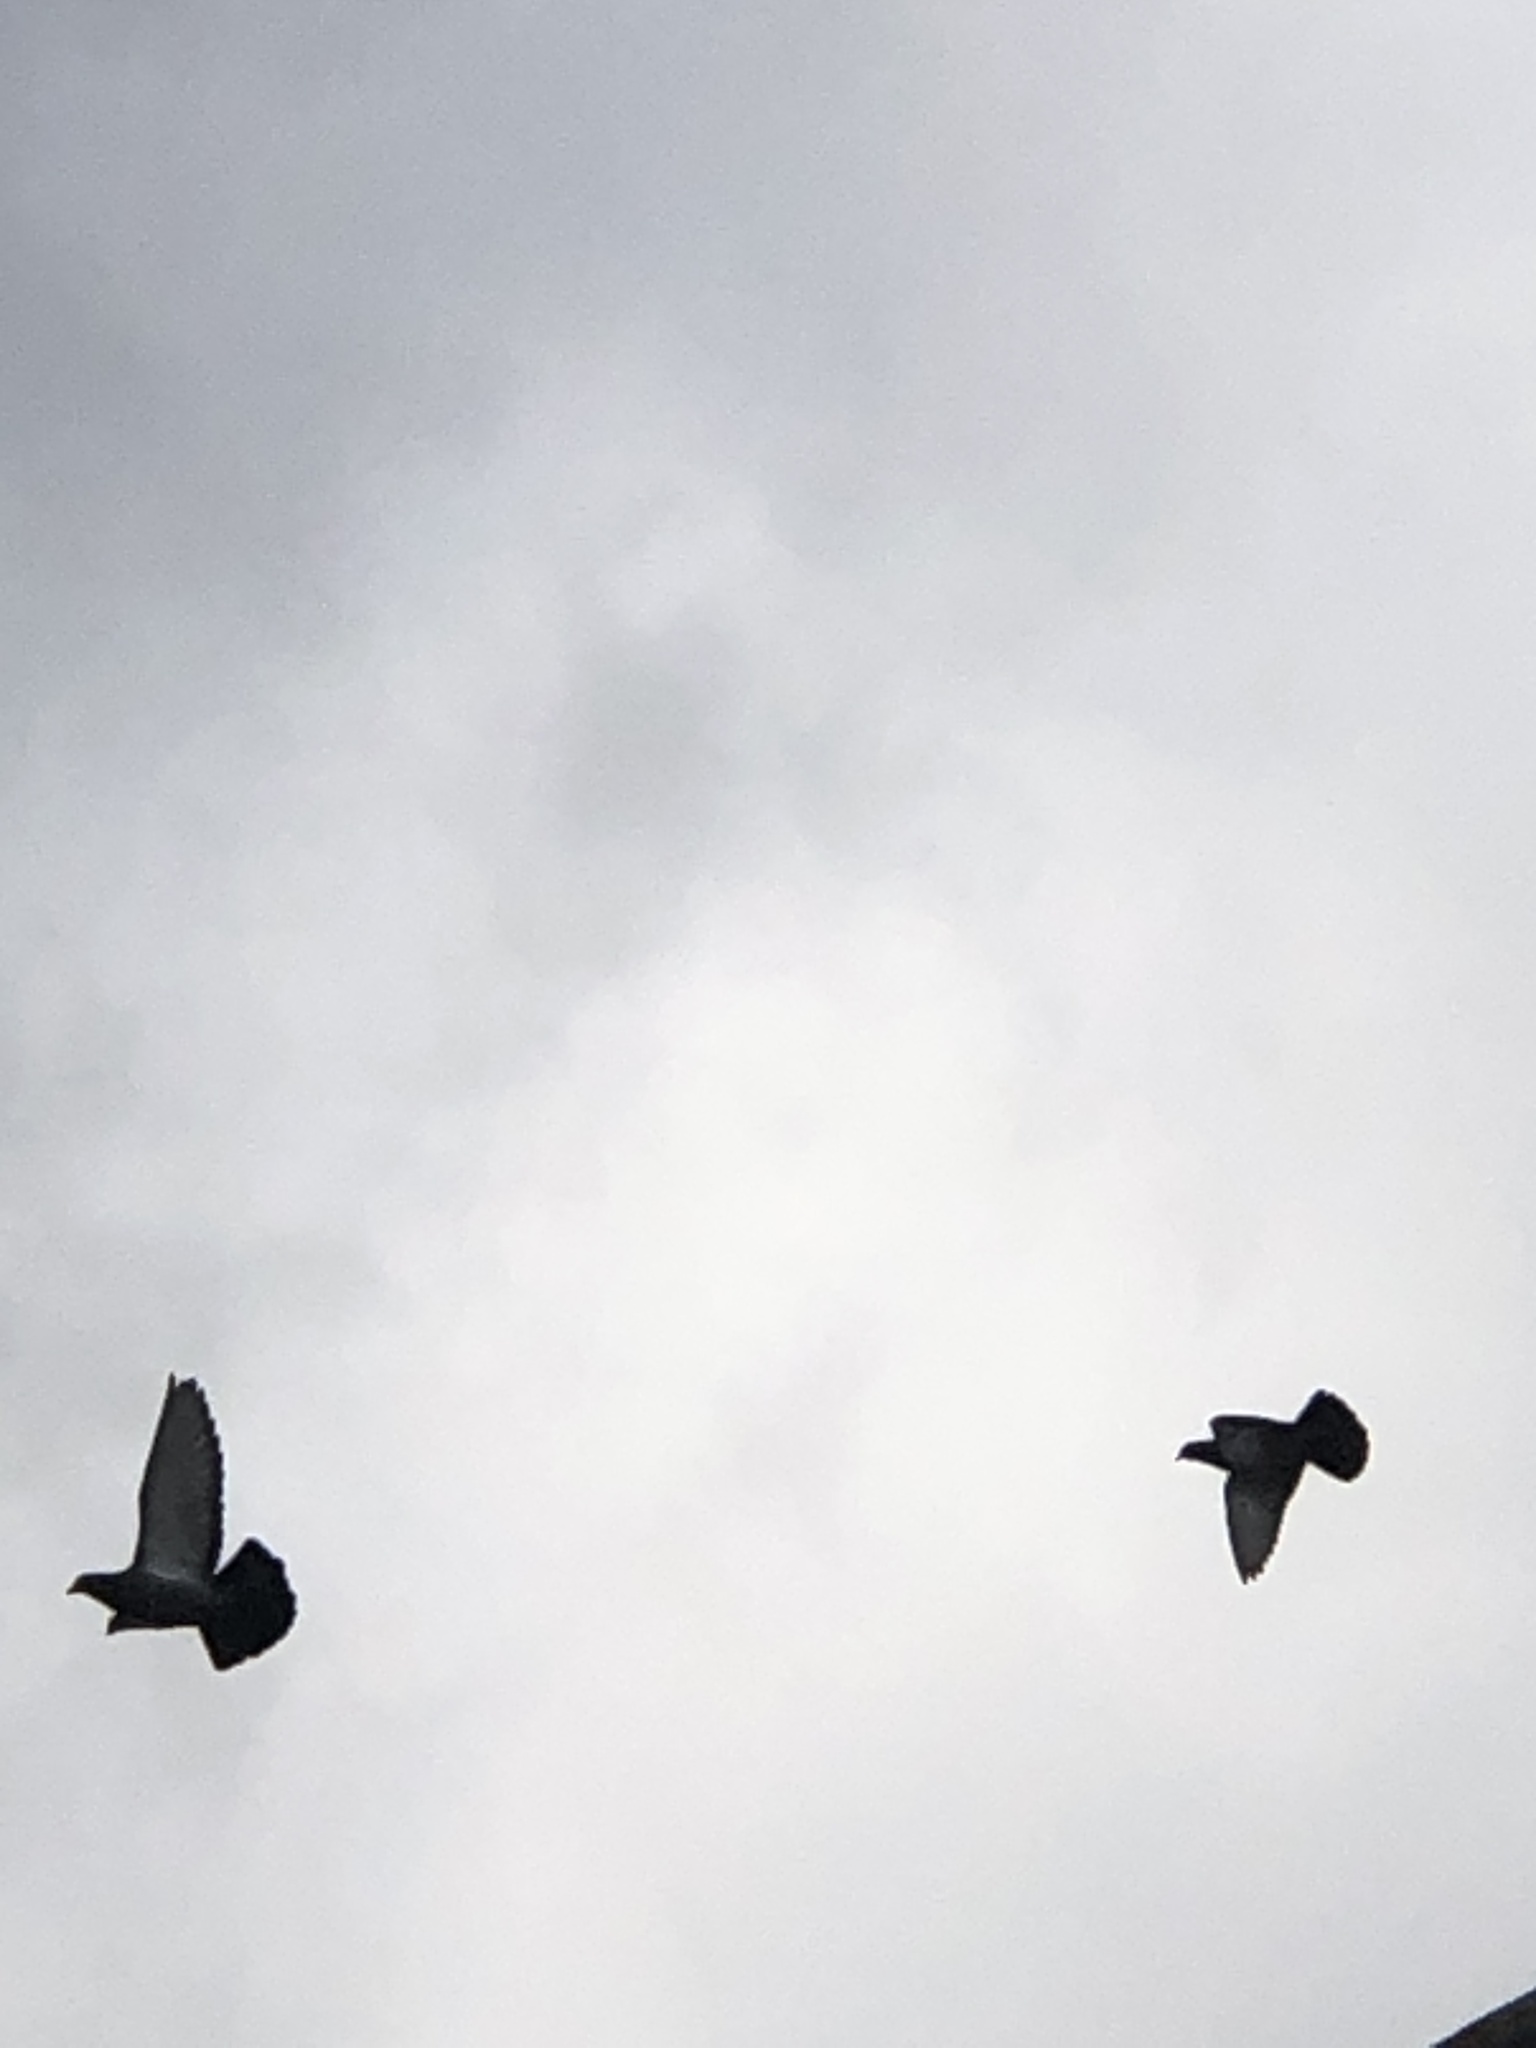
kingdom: Animalia
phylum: Chordata
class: Aves
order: Columbiformes
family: Columbidae
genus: Columba
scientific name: Columba livia
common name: Rock pigeon
